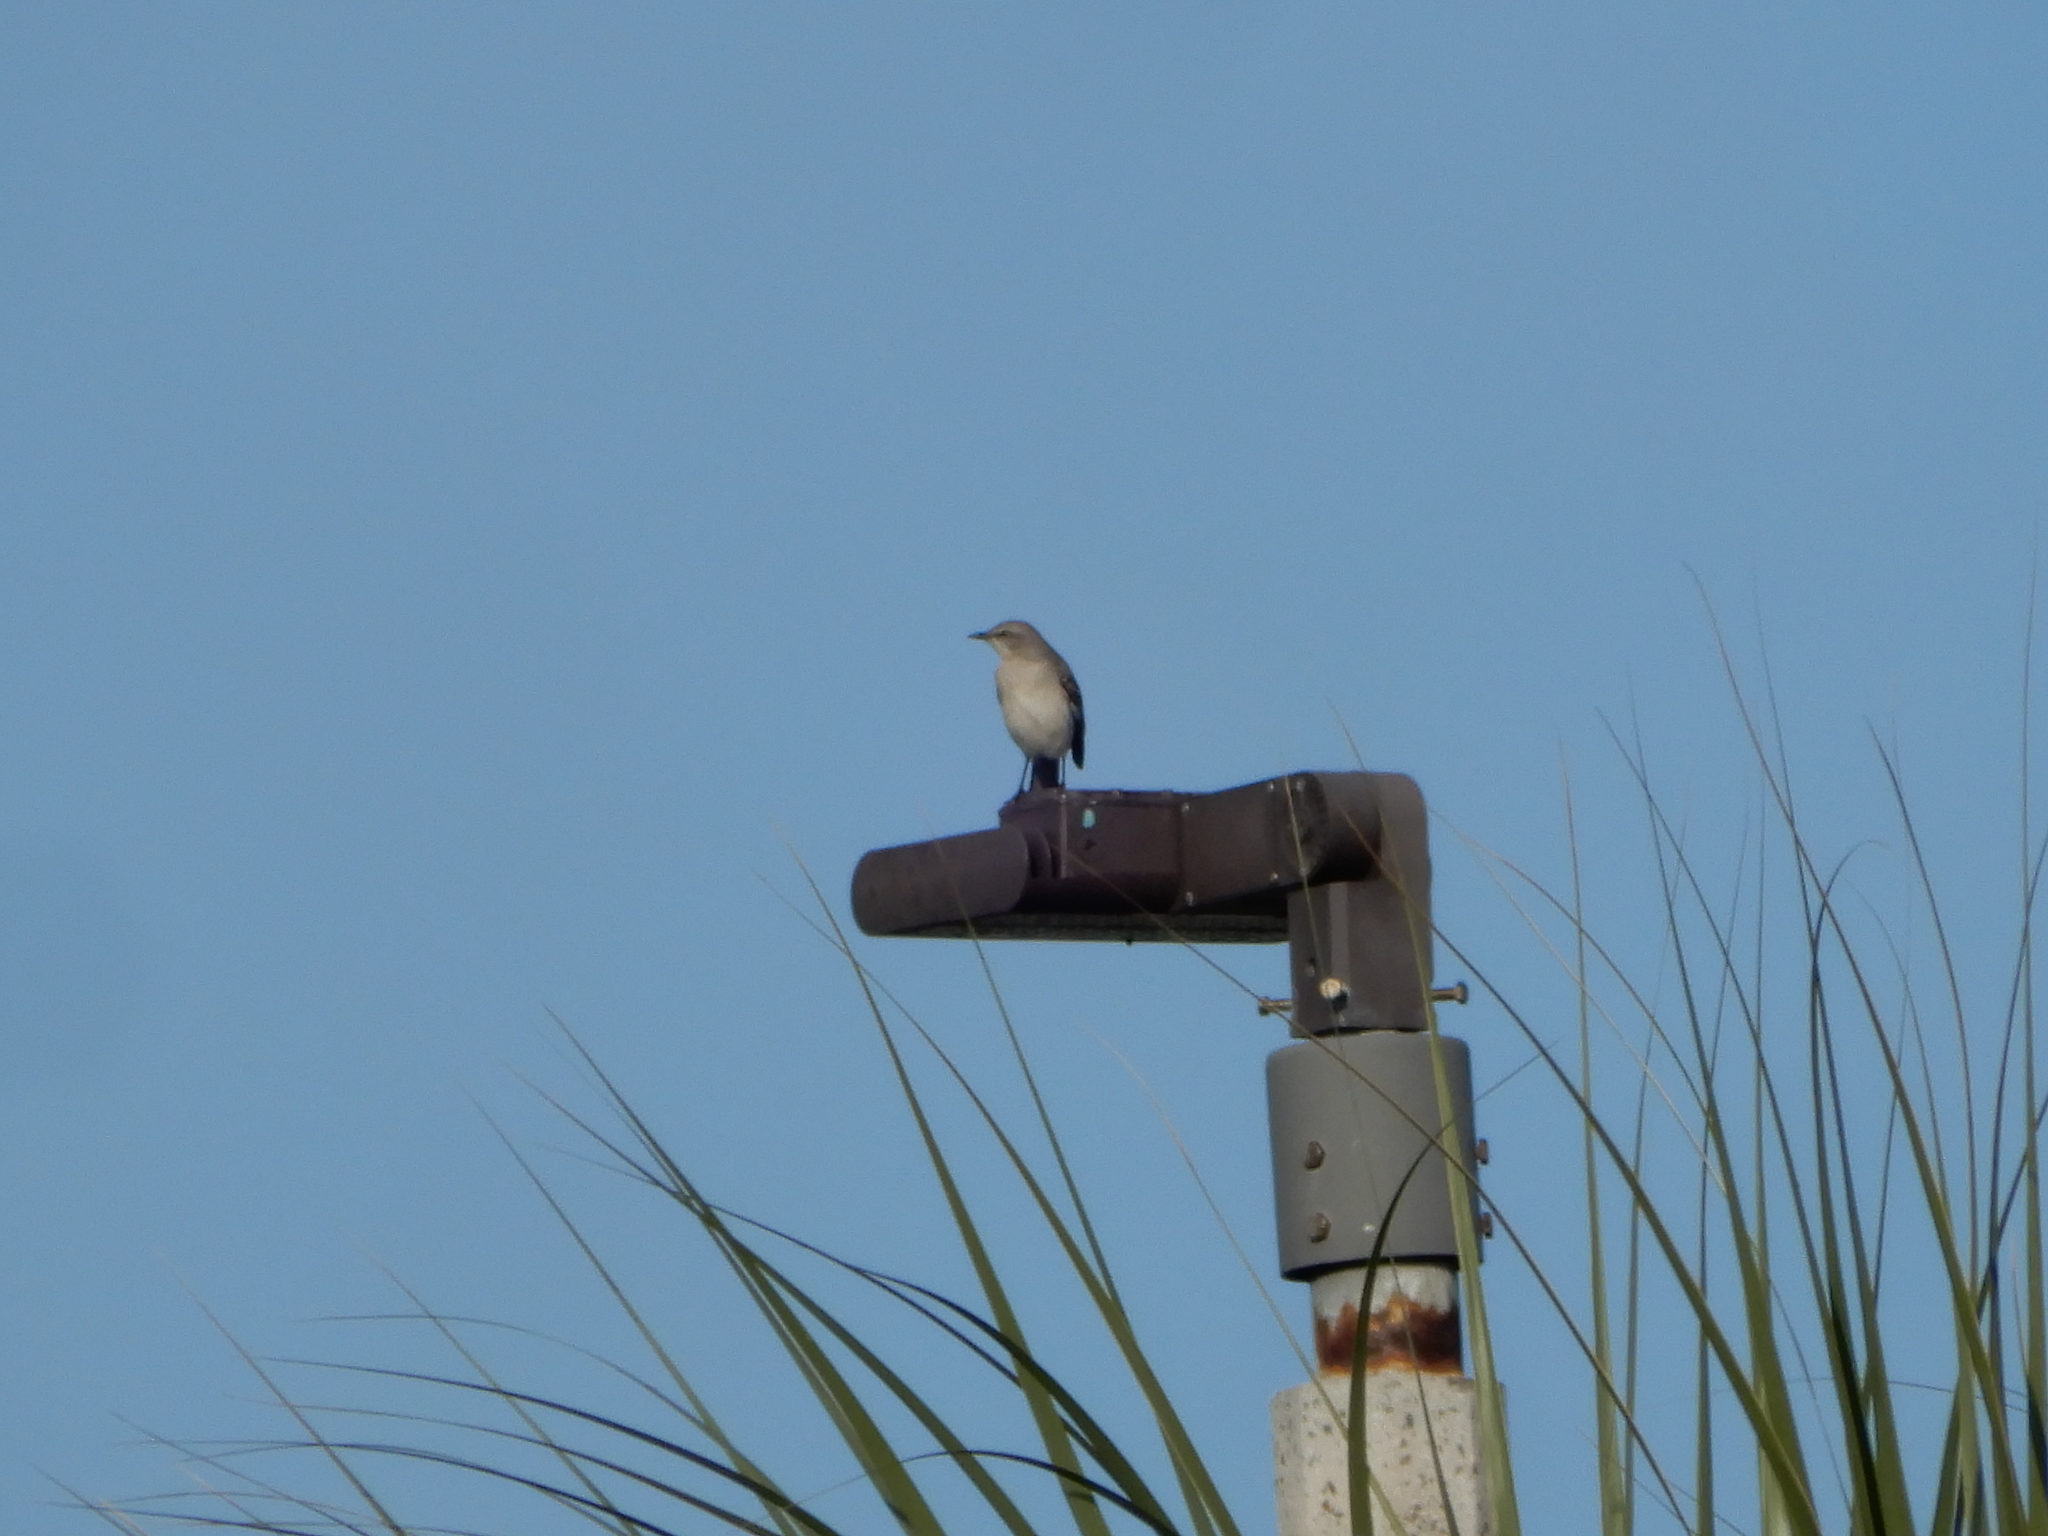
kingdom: Animalia
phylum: Chordata
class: Aves
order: Passeriformes
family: Mimidae
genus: Mimus
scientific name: Mimus polyglottos
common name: Northern mockingbird
